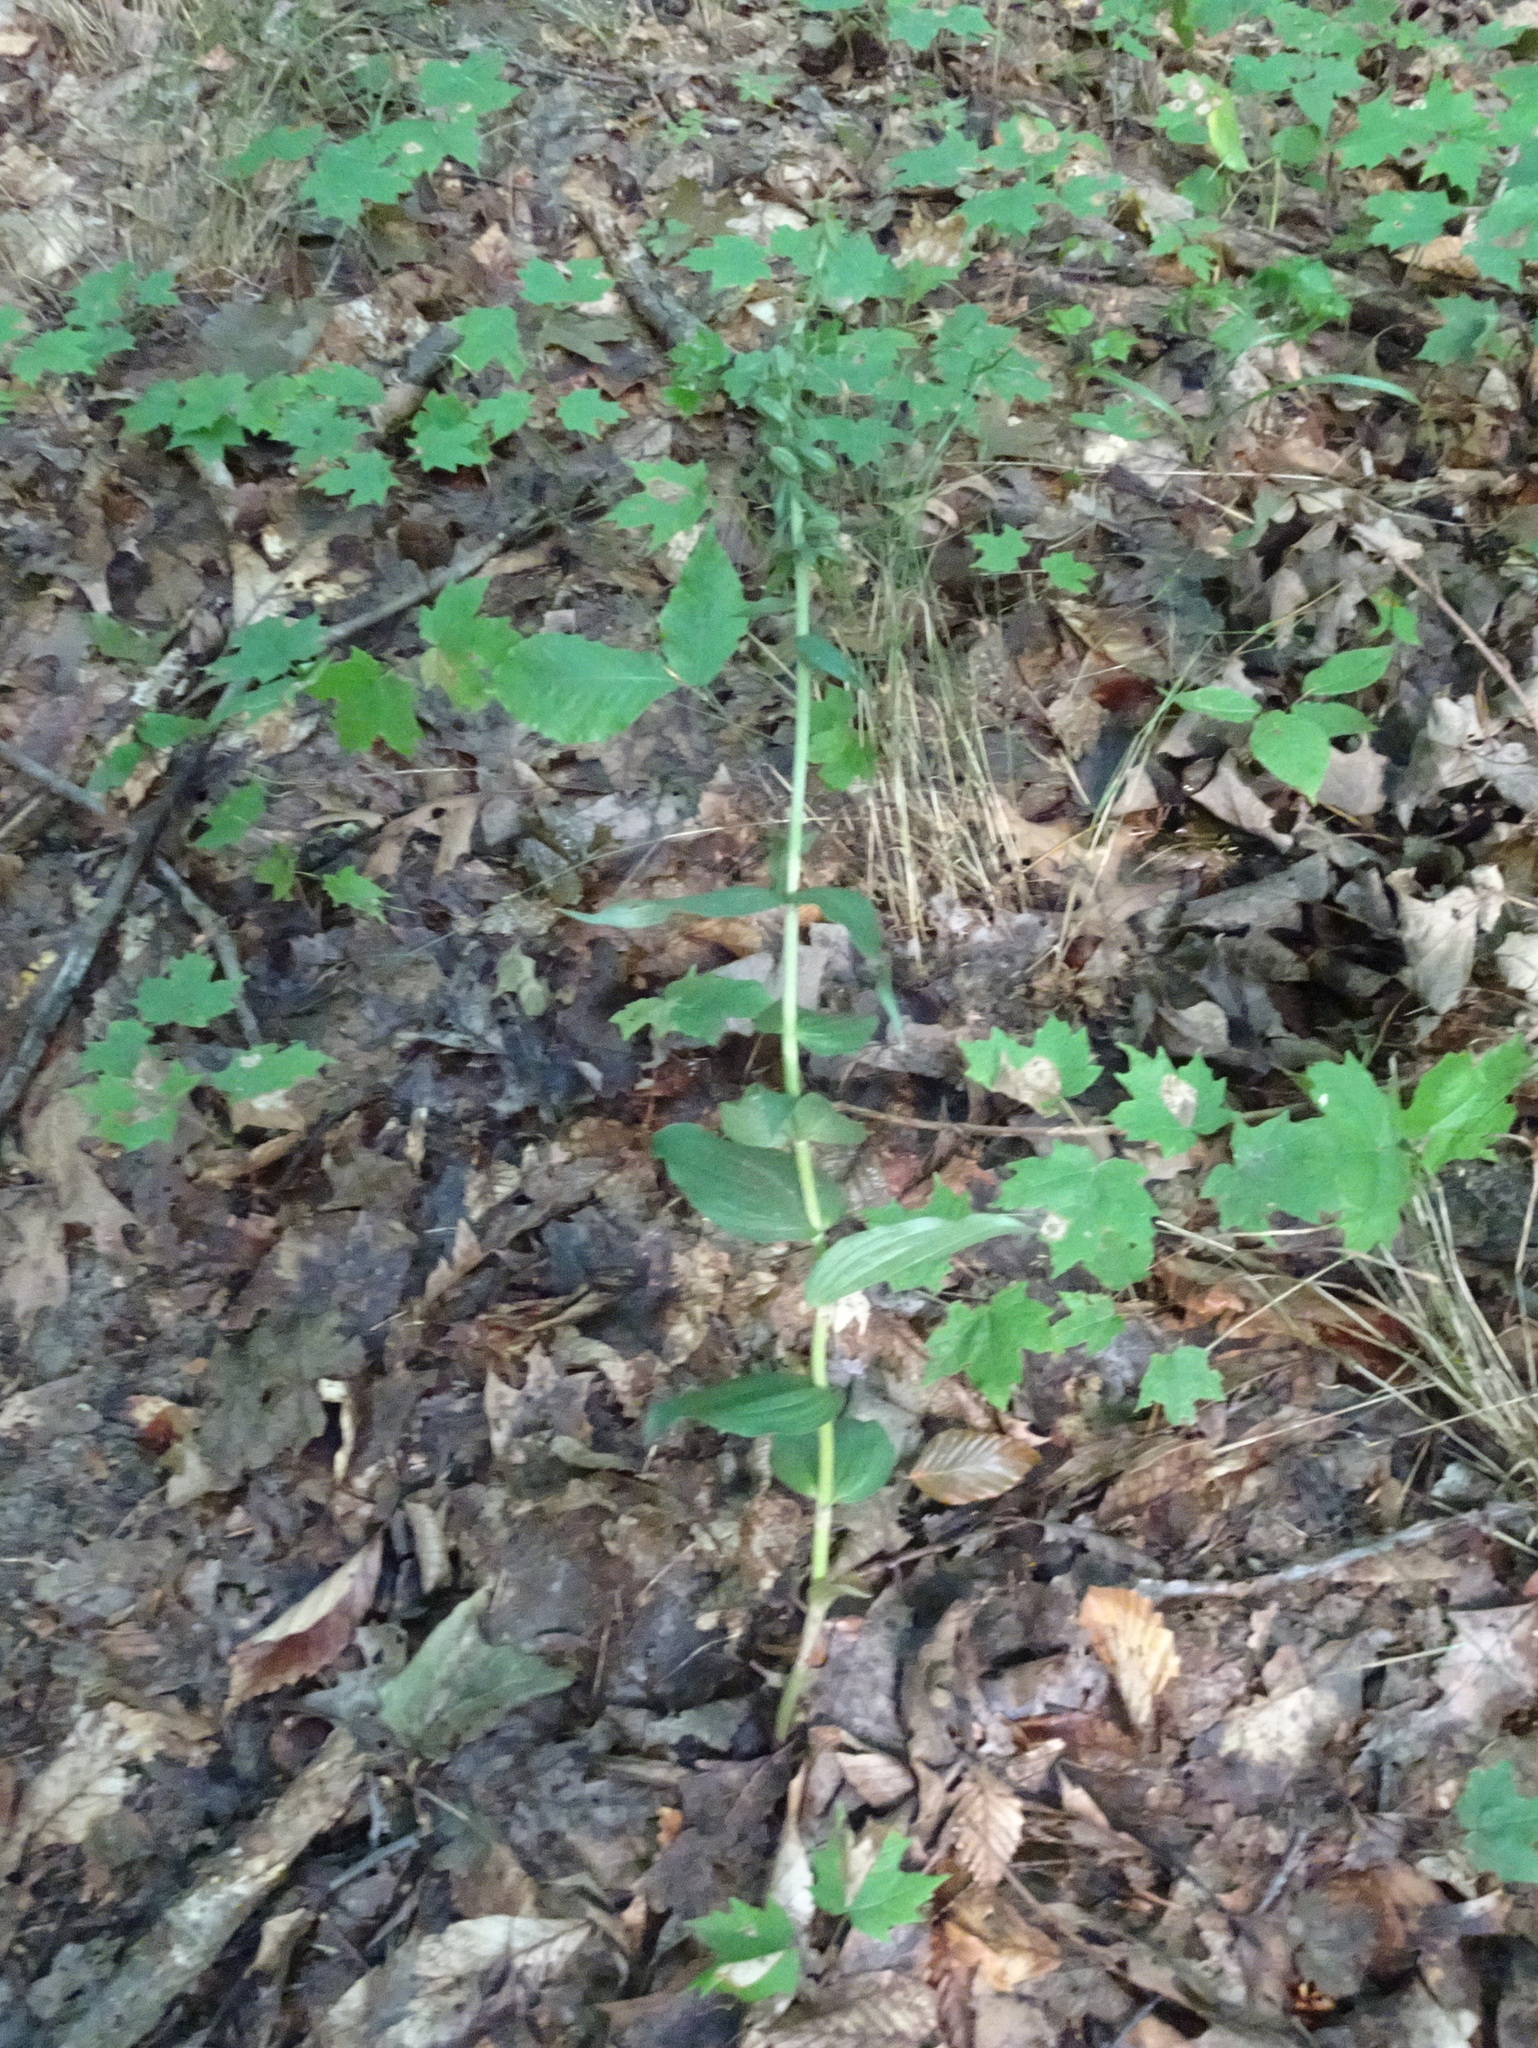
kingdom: Plantae
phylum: Tracheophyta
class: Liliopsida
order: Asparagales
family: Orchidaceae
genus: Epipactis
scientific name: Epipactis helleborine
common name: Broad-leaved helleborine
